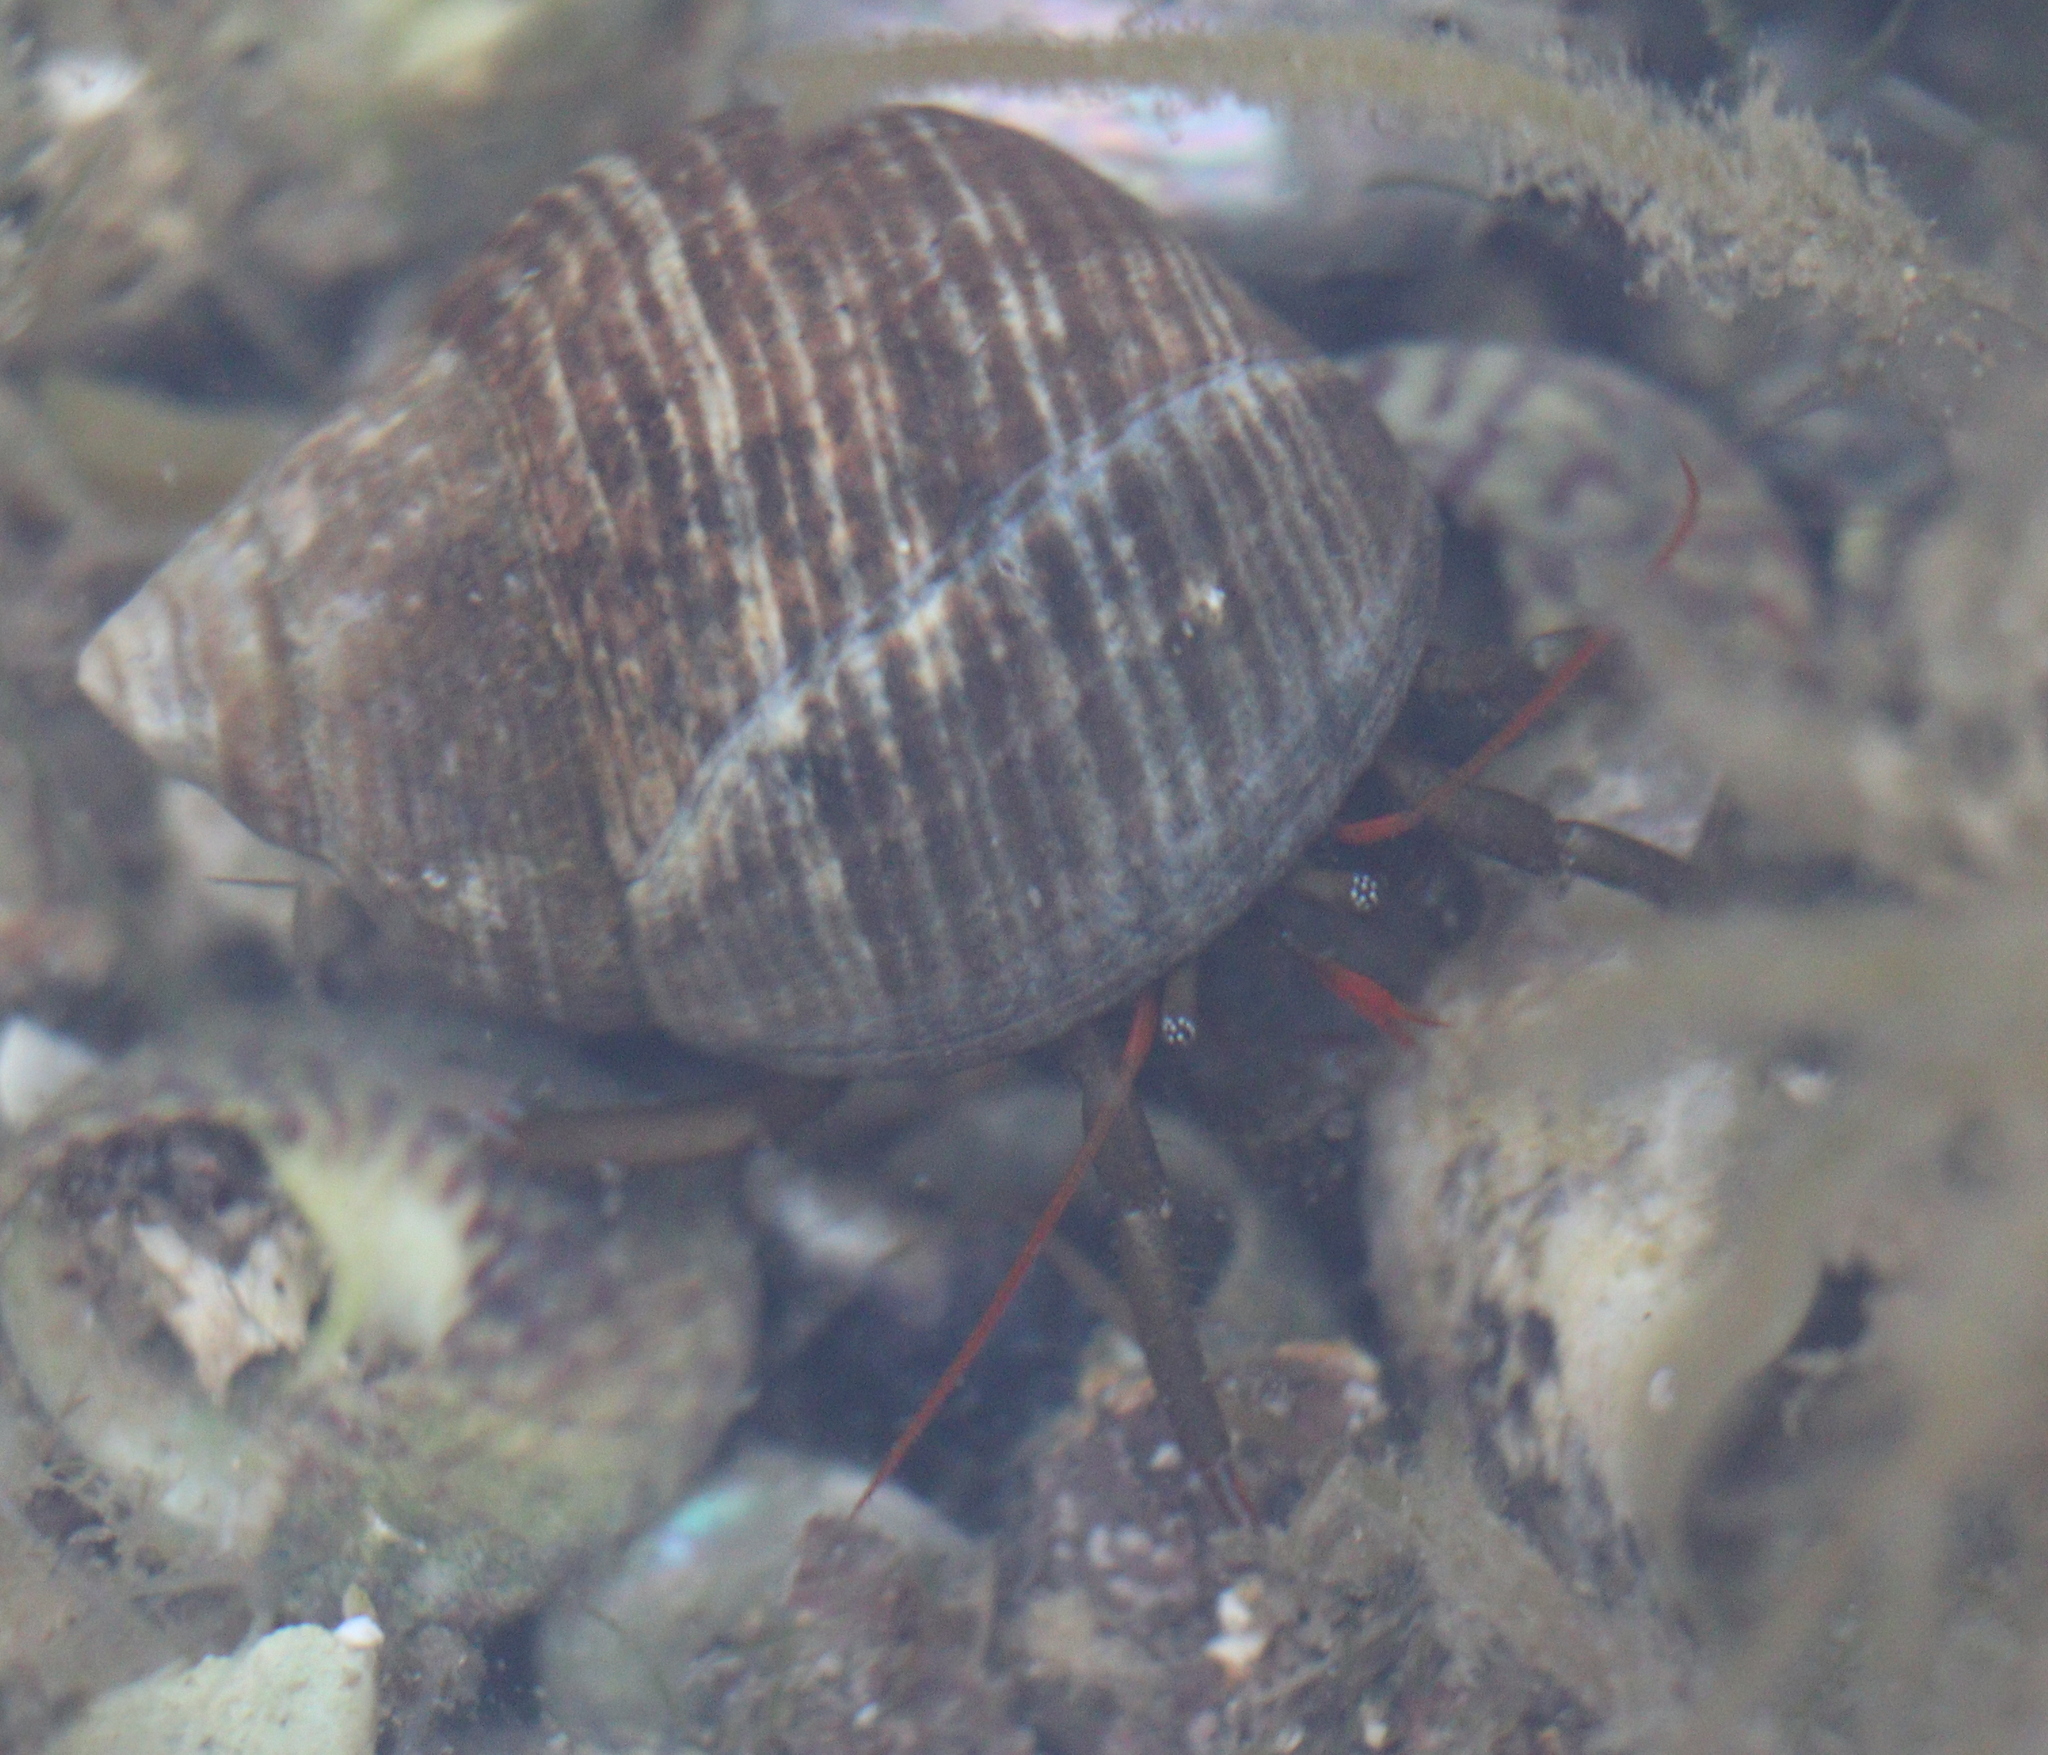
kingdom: Animalia
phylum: Arthropoda
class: Malacostraca
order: Decapoda
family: Diogenidae
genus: Clibanarius
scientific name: Clibanarius erythropus
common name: Hermit crab
